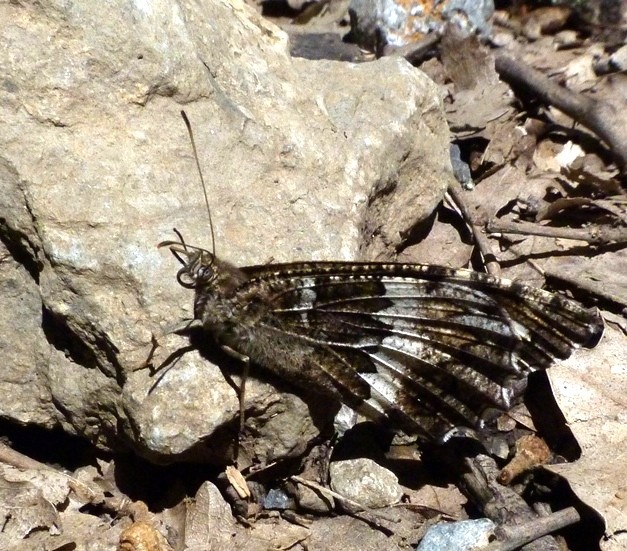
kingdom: Animalia
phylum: Arthropoda
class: Insecta
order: Lepidoptera
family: Lycaenidae
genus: Loweia
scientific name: Loweia tityrus
